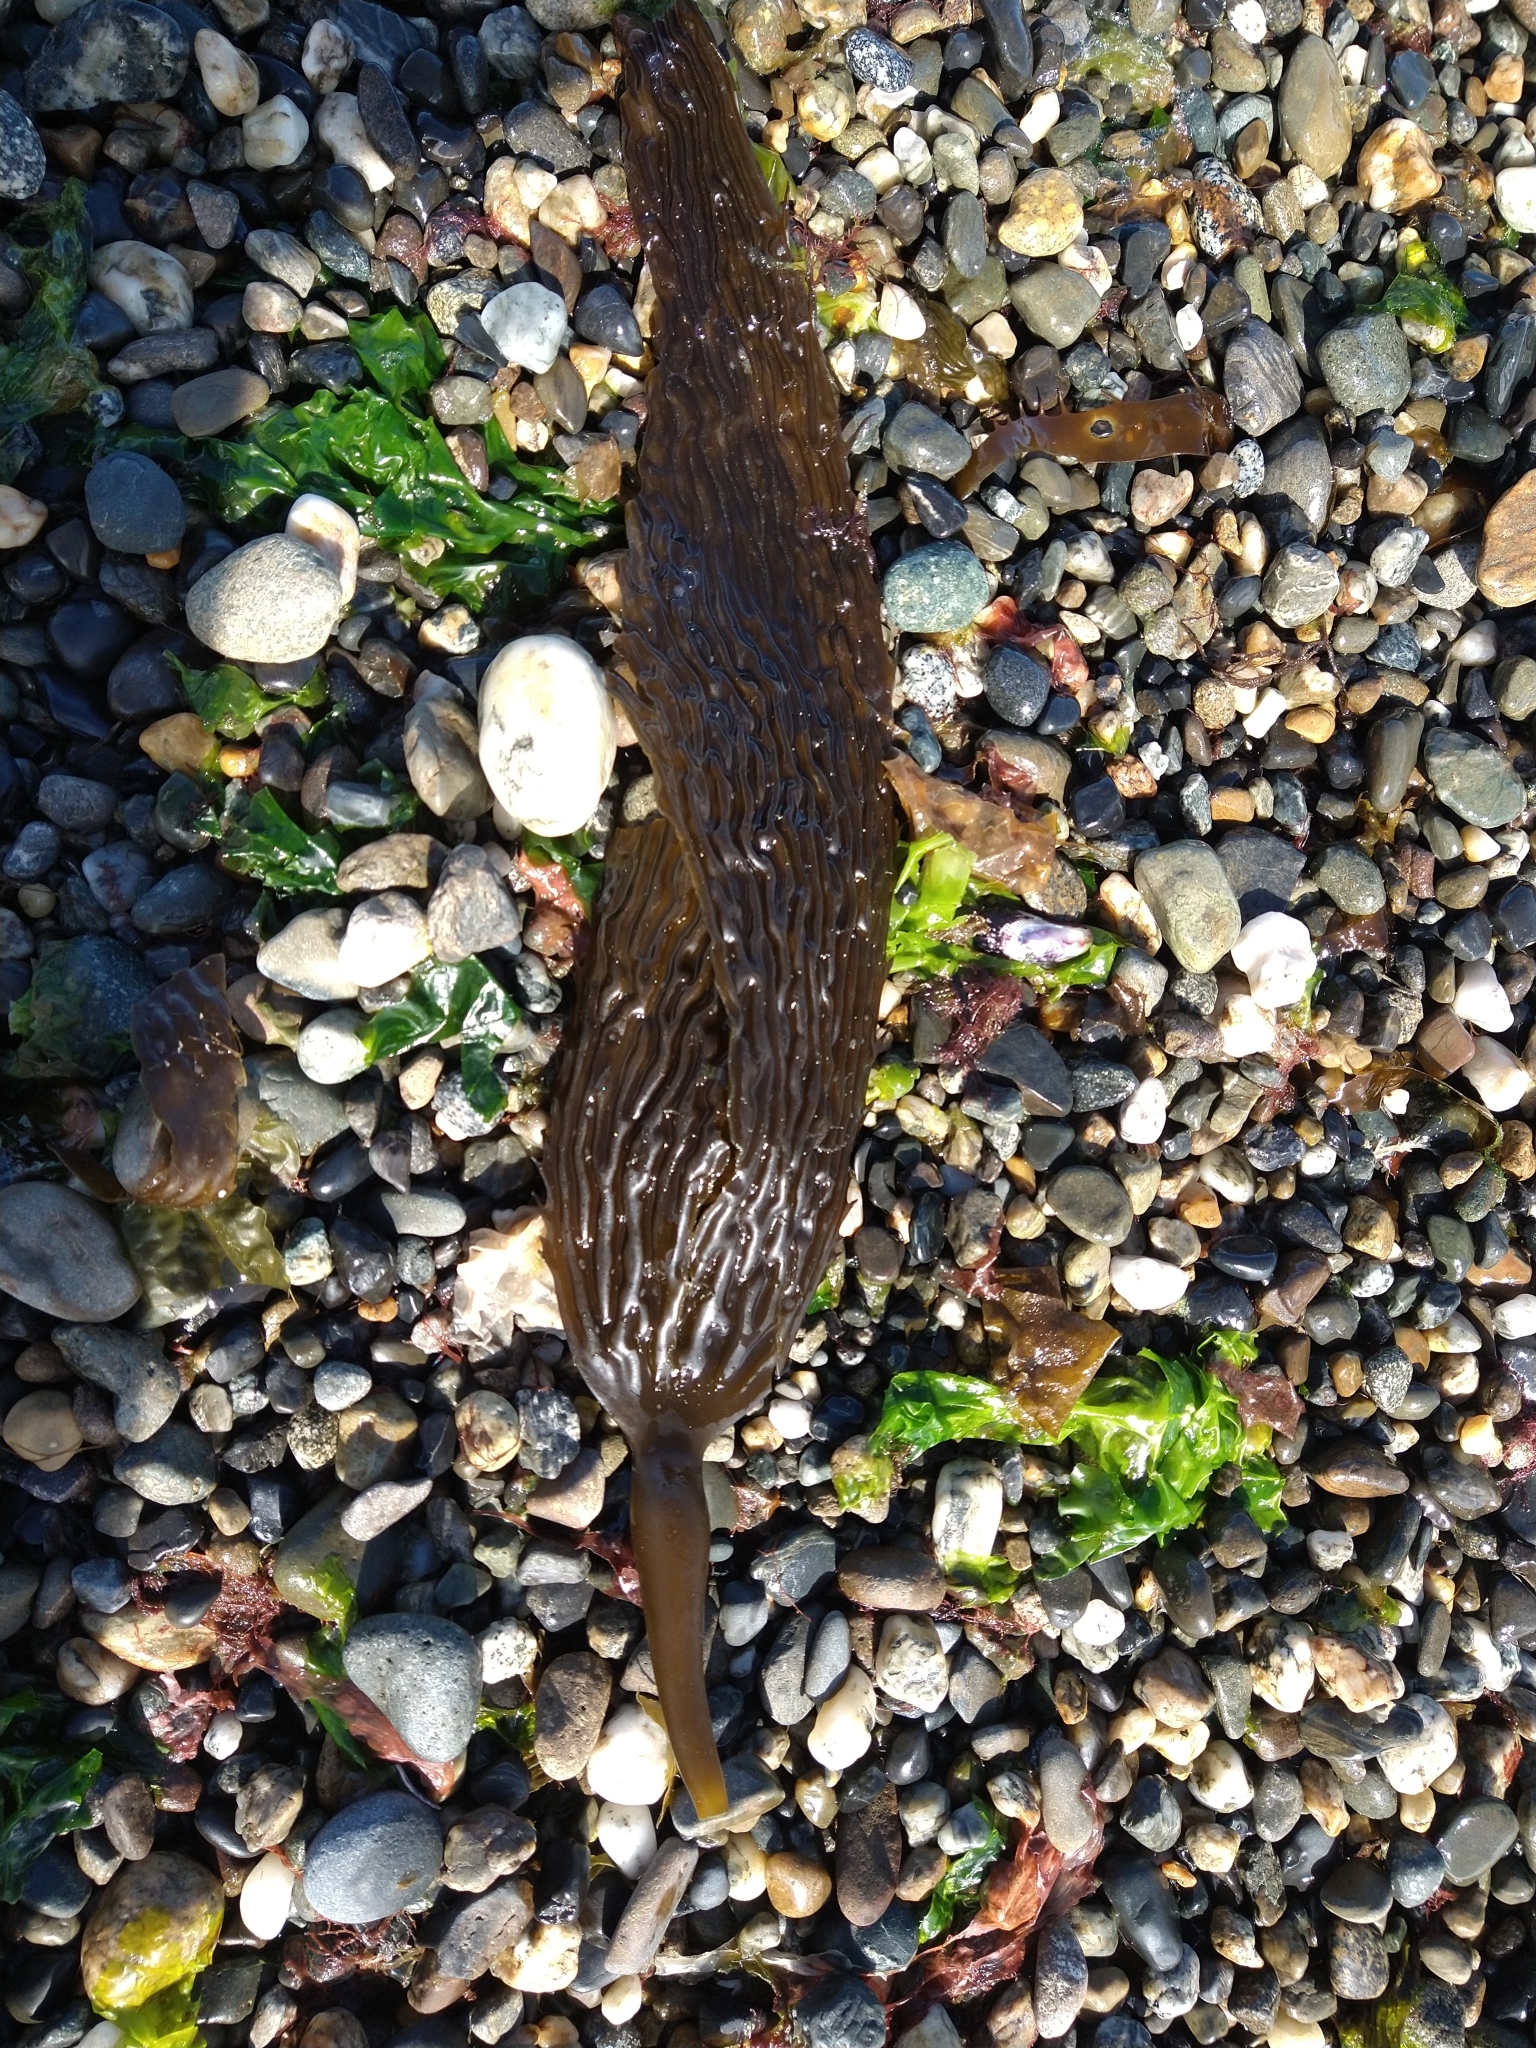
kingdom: Chromista
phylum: Ochrophyta
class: Phaeophyceae
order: Laminariales
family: Laminariaceae
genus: Macrocystis
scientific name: Macrocystis pyrifera
